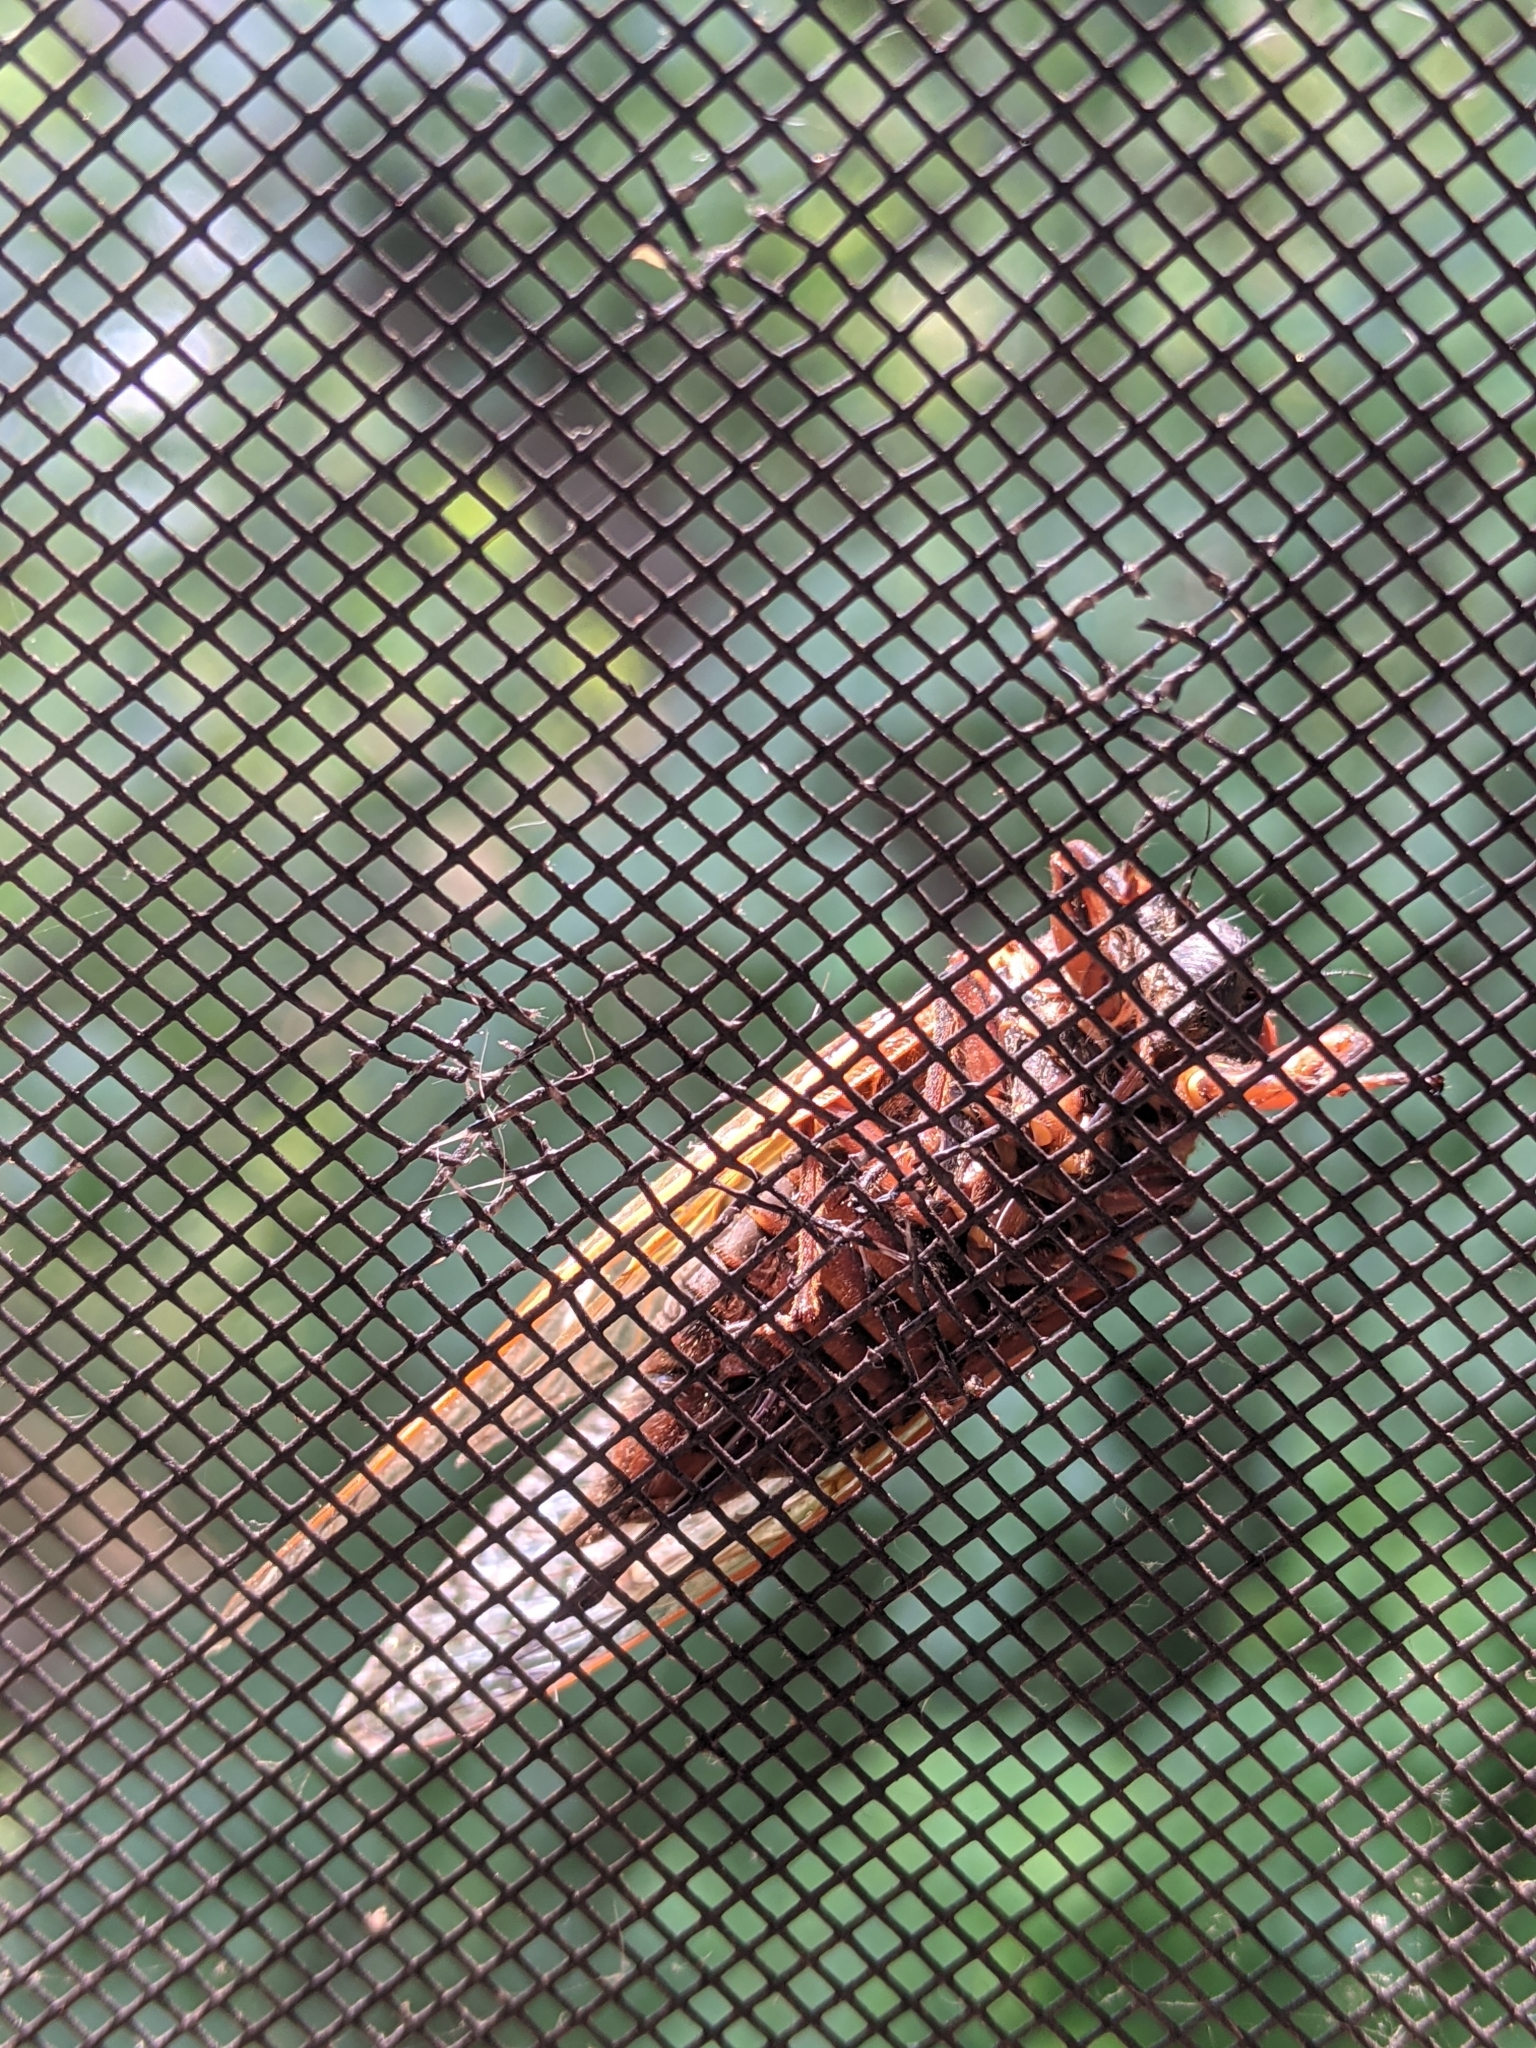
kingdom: Animalia
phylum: Arthropoda
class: Insecta
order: Hemiptera
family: Cicadidae
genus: Magicicada
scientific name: Magicicada septendecim
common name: Periodical cicada
